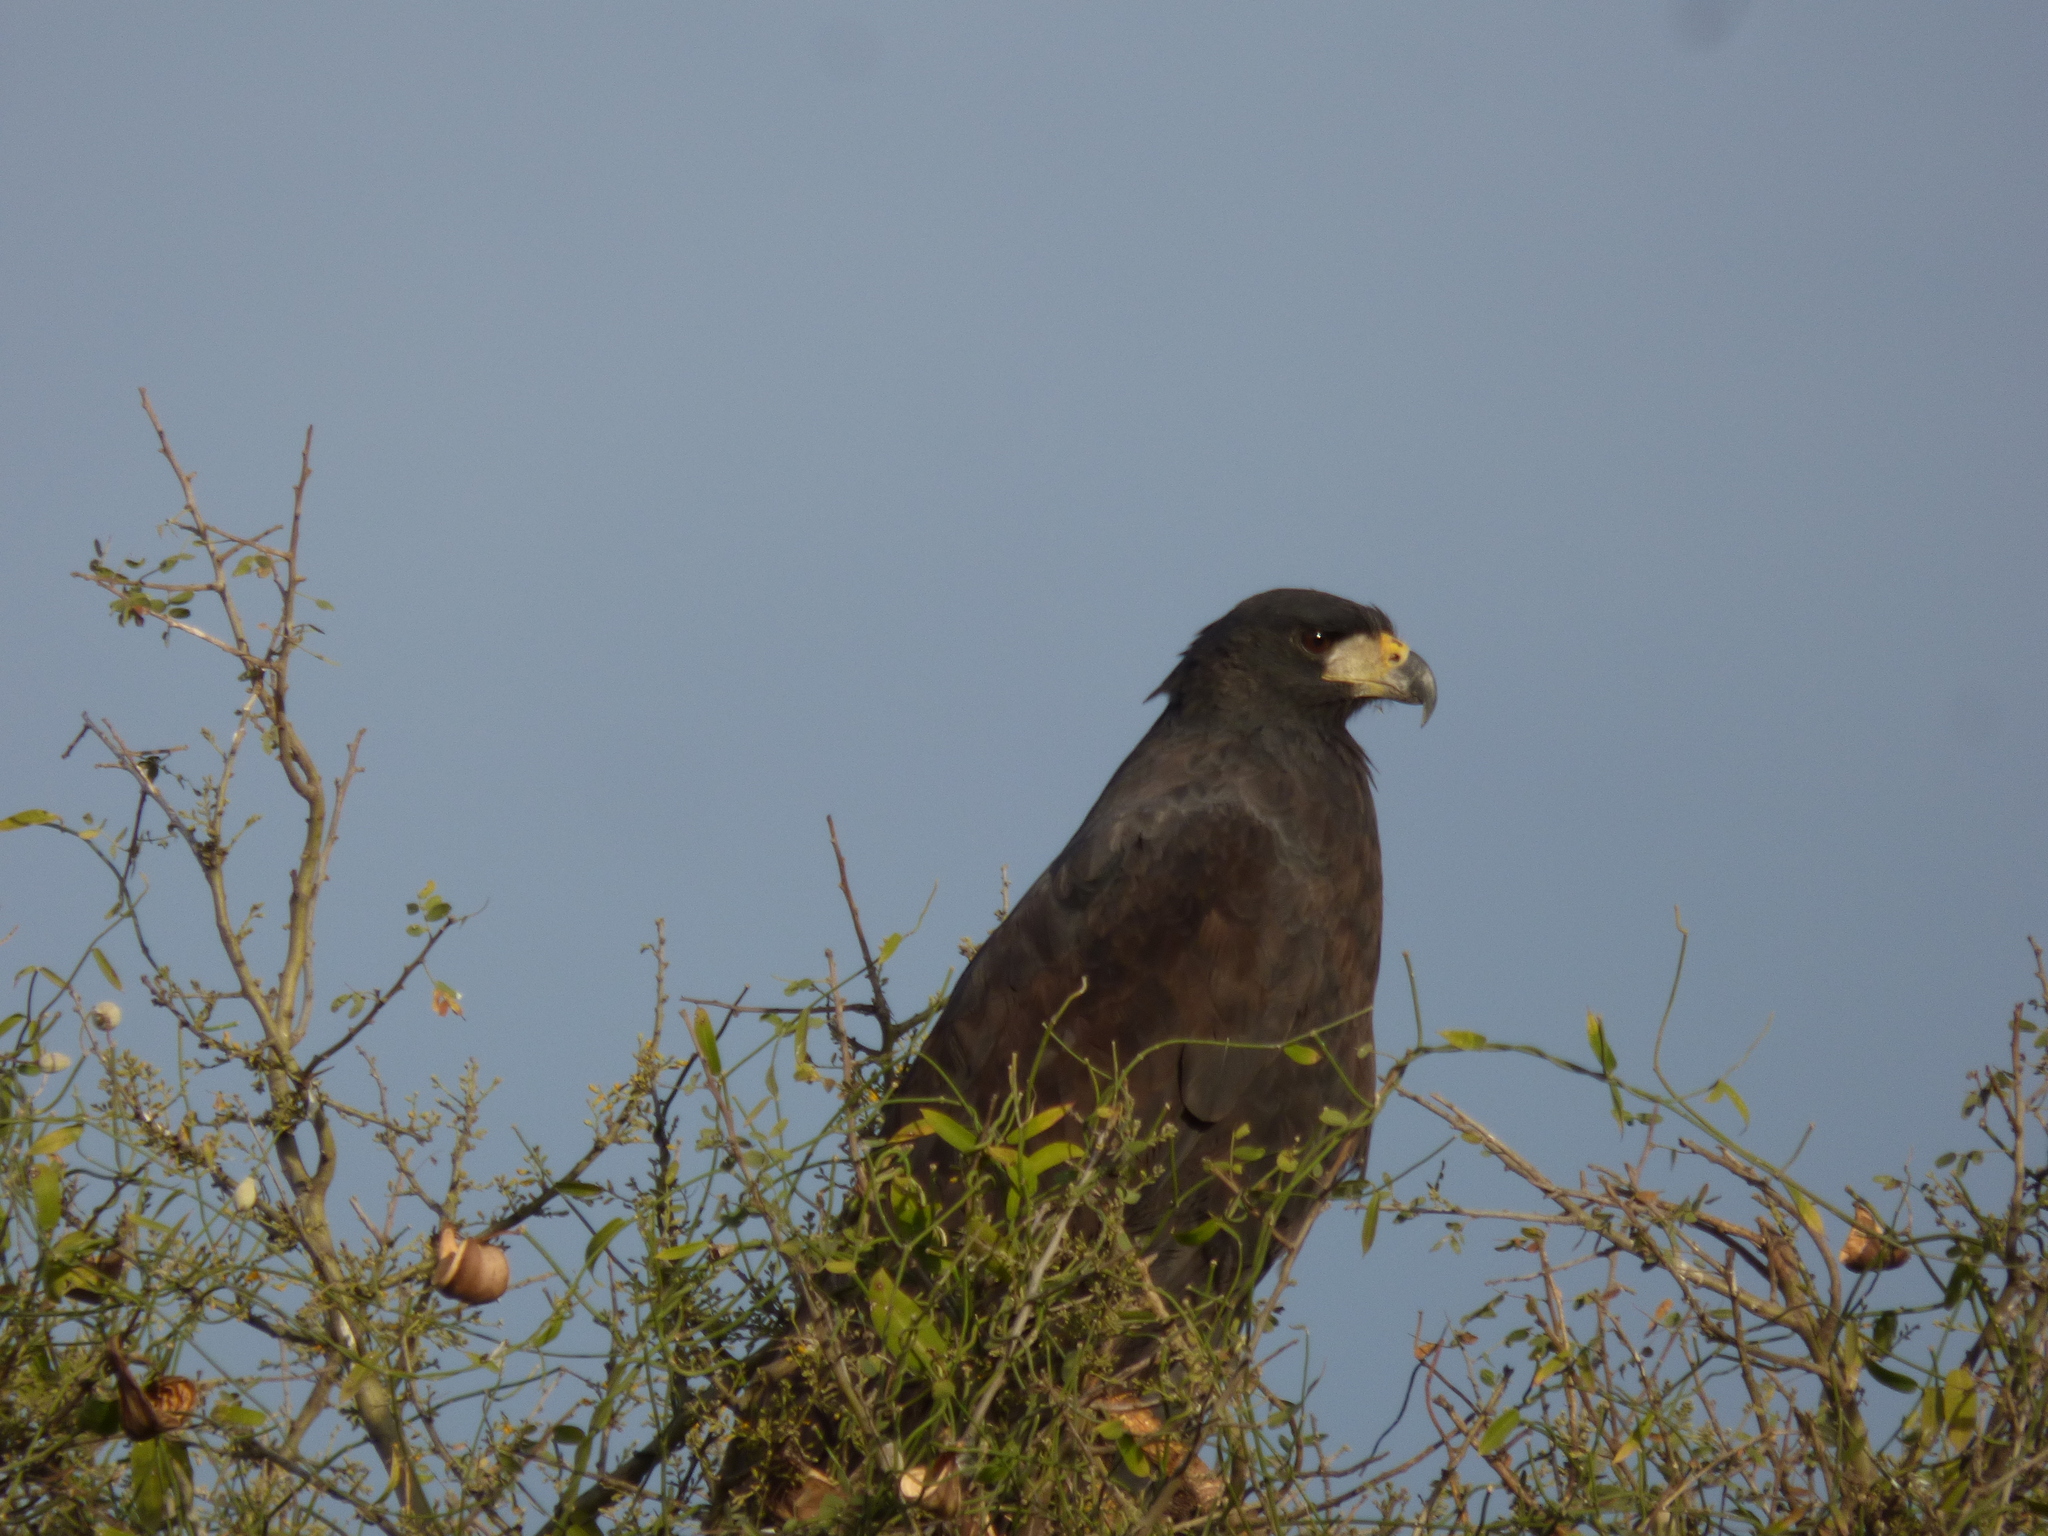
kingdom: Animalia
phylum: Chordata
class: Aves
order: Accipitriformes
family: Accipitridae
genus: Buteogallus
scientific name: Buteogallus urubitinga
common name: Great black hawk
